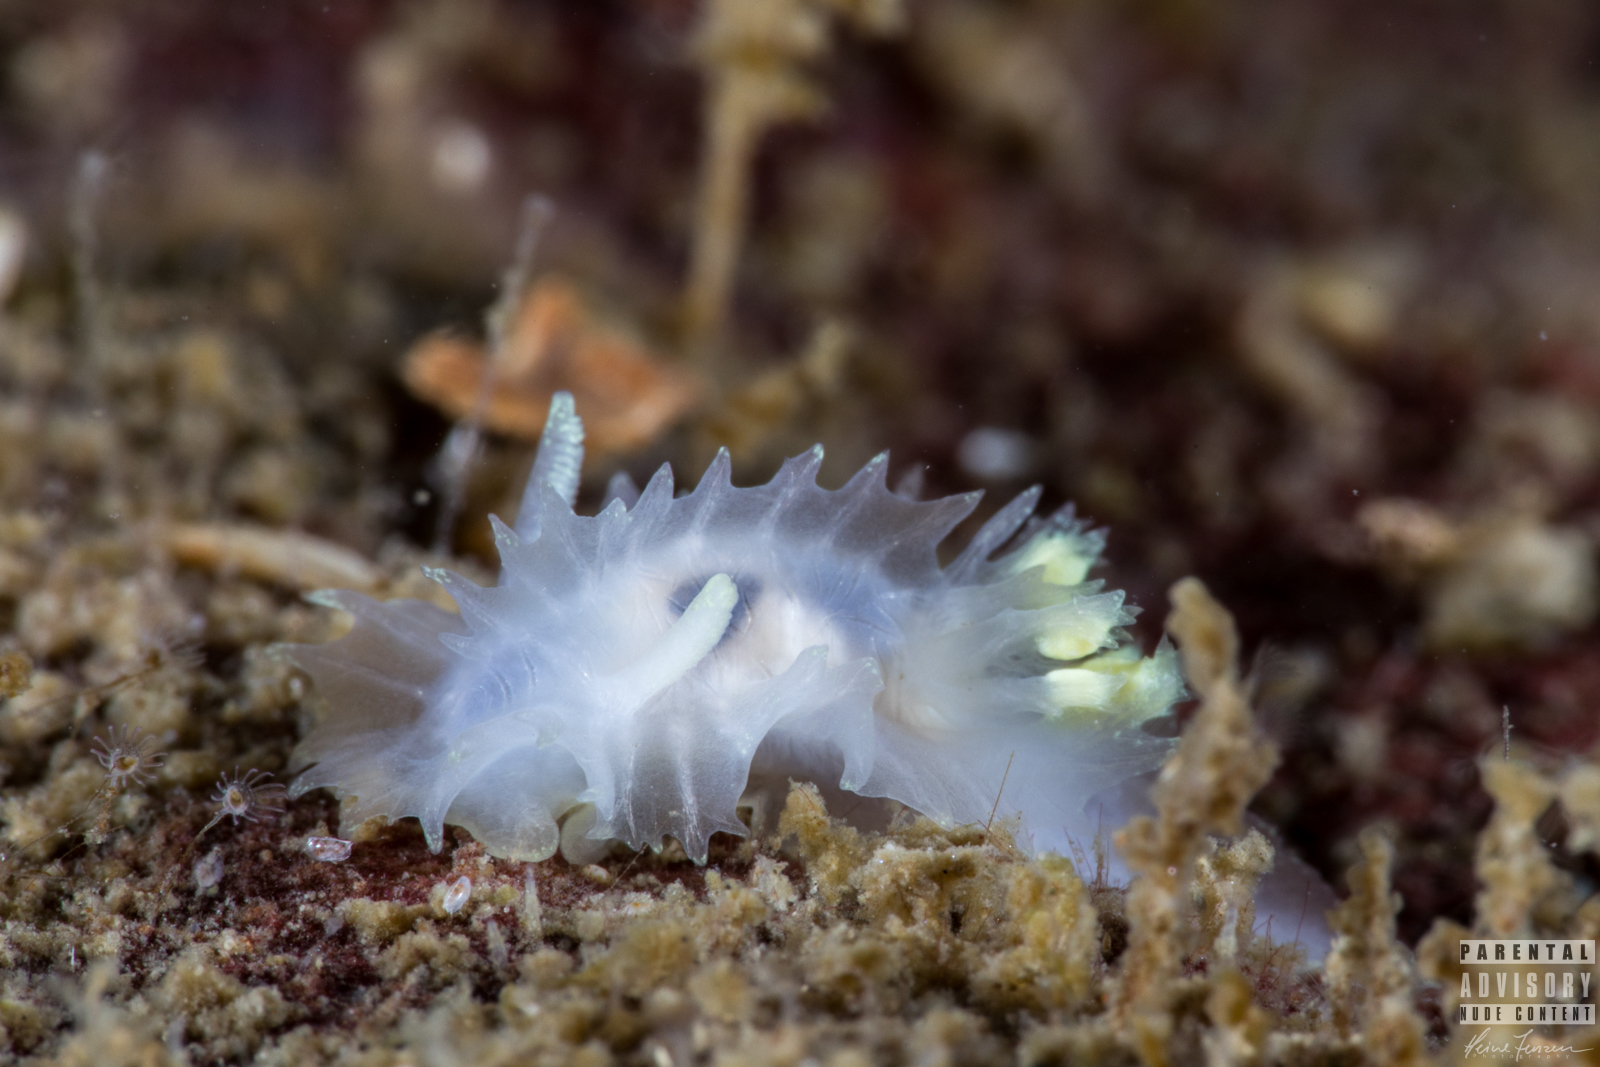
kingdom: Animalia
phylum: Mollusca
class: Gastropoda
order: Nudibranchia
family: Goniodorididae
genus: Lophodoris
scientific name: Lophodoris danielsseni
